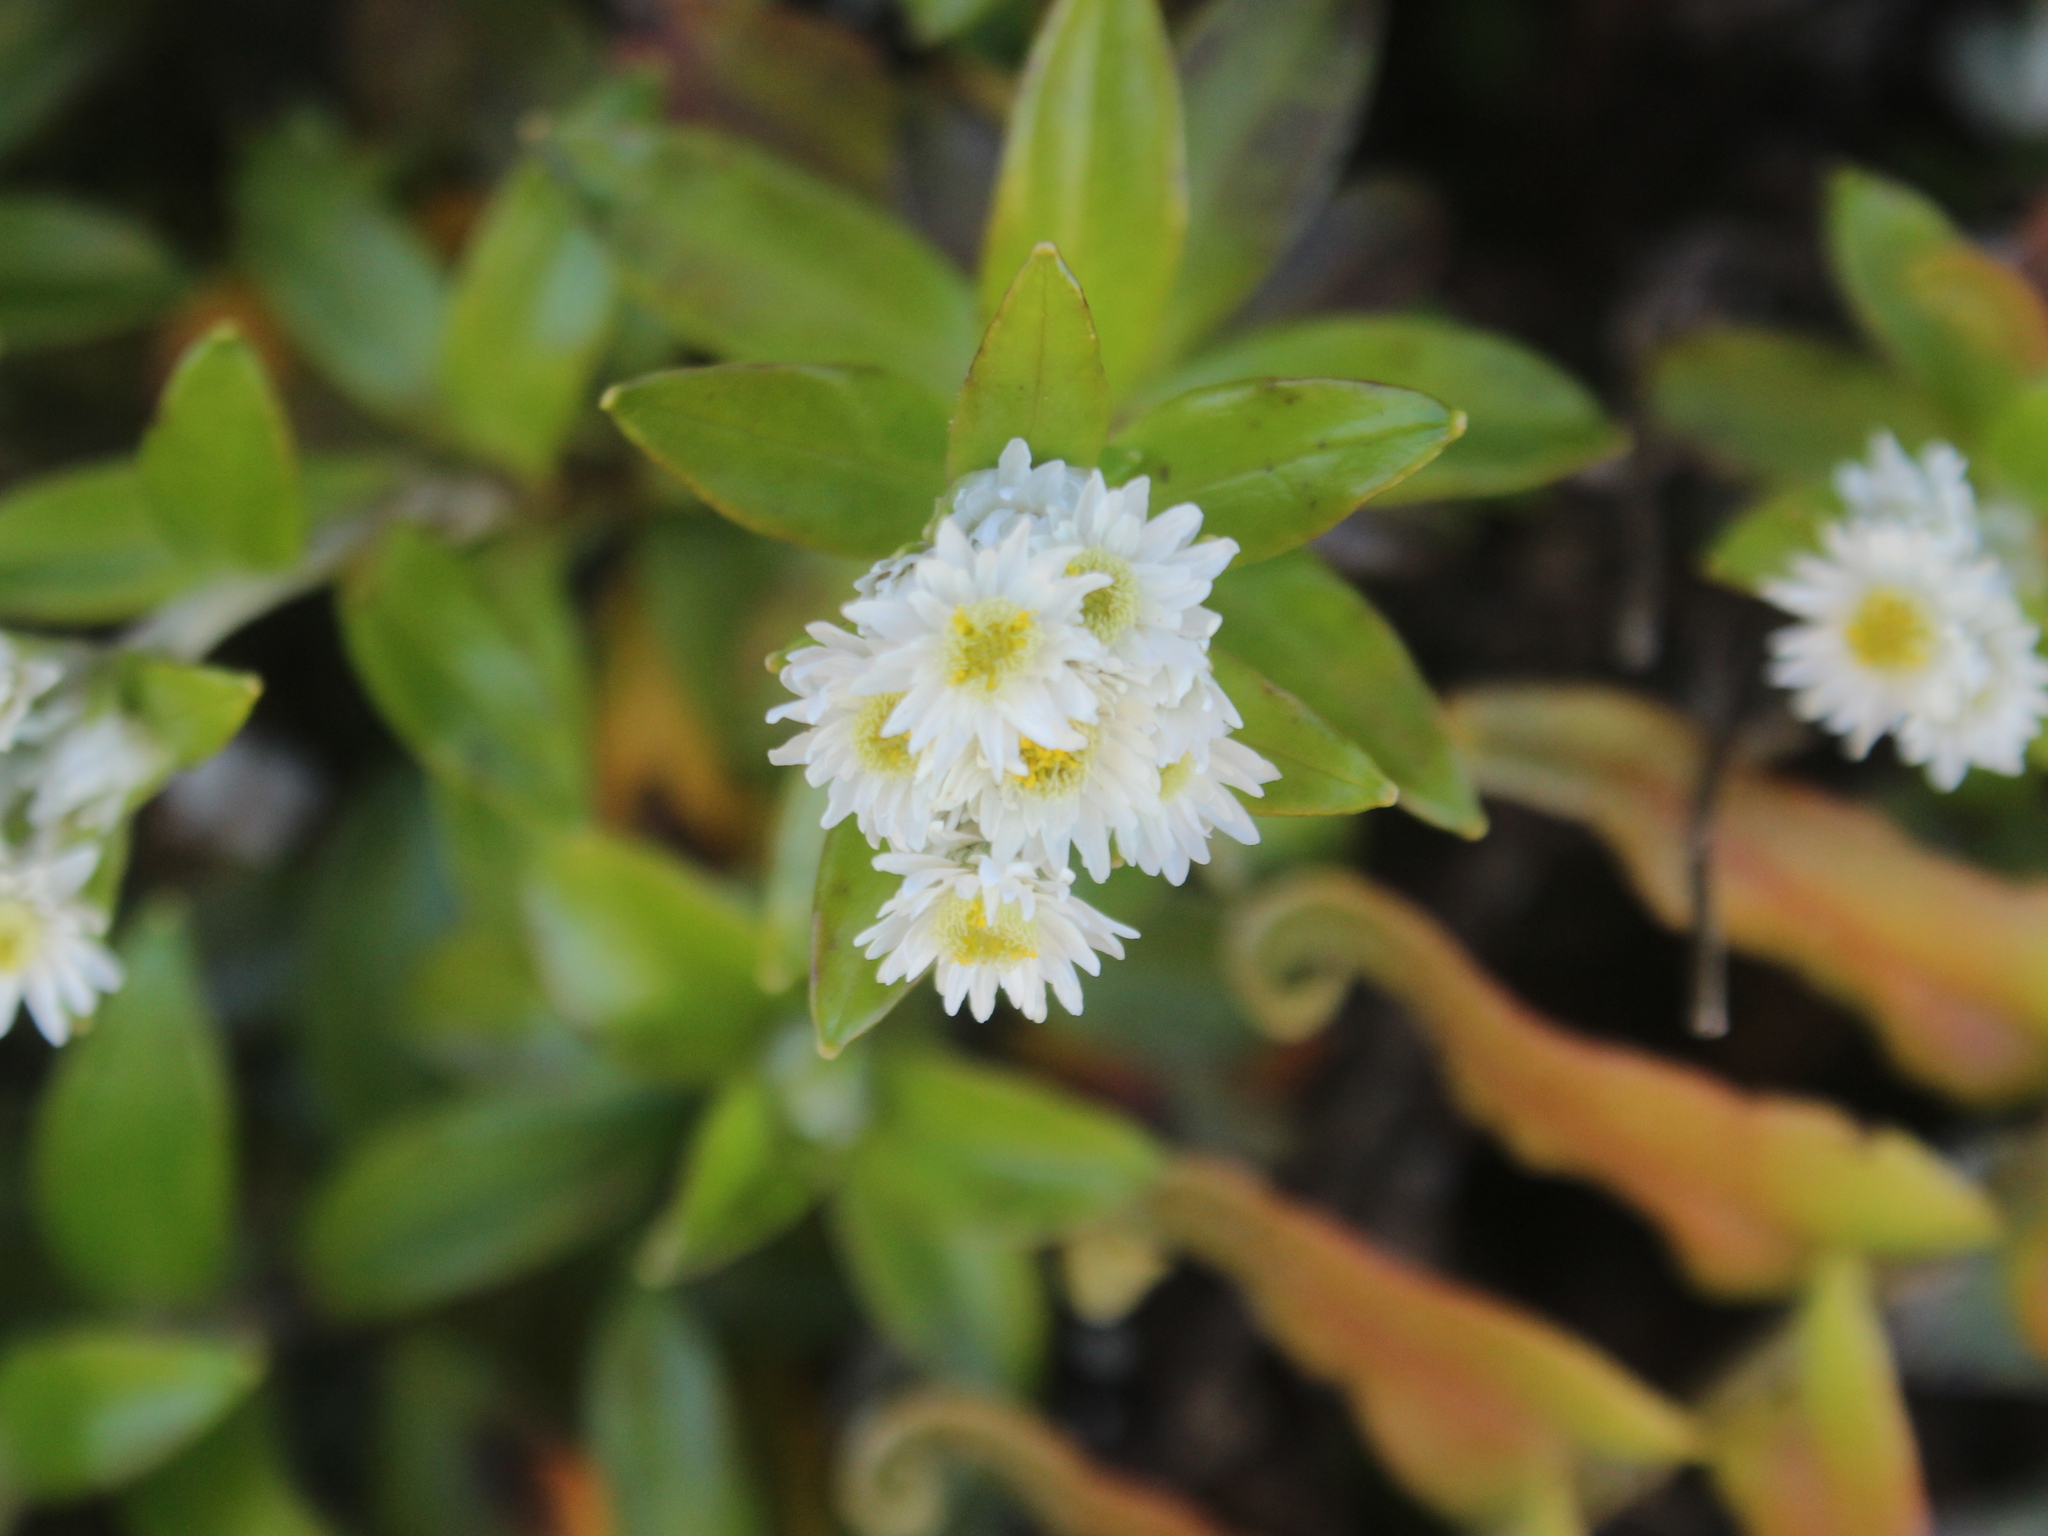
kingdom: Plantae
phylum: Tracheophyta
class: Magnoliopsida
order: Asterales
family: Asteraceae
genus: Anaphalioides
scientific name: Anaphalioides trinervis
